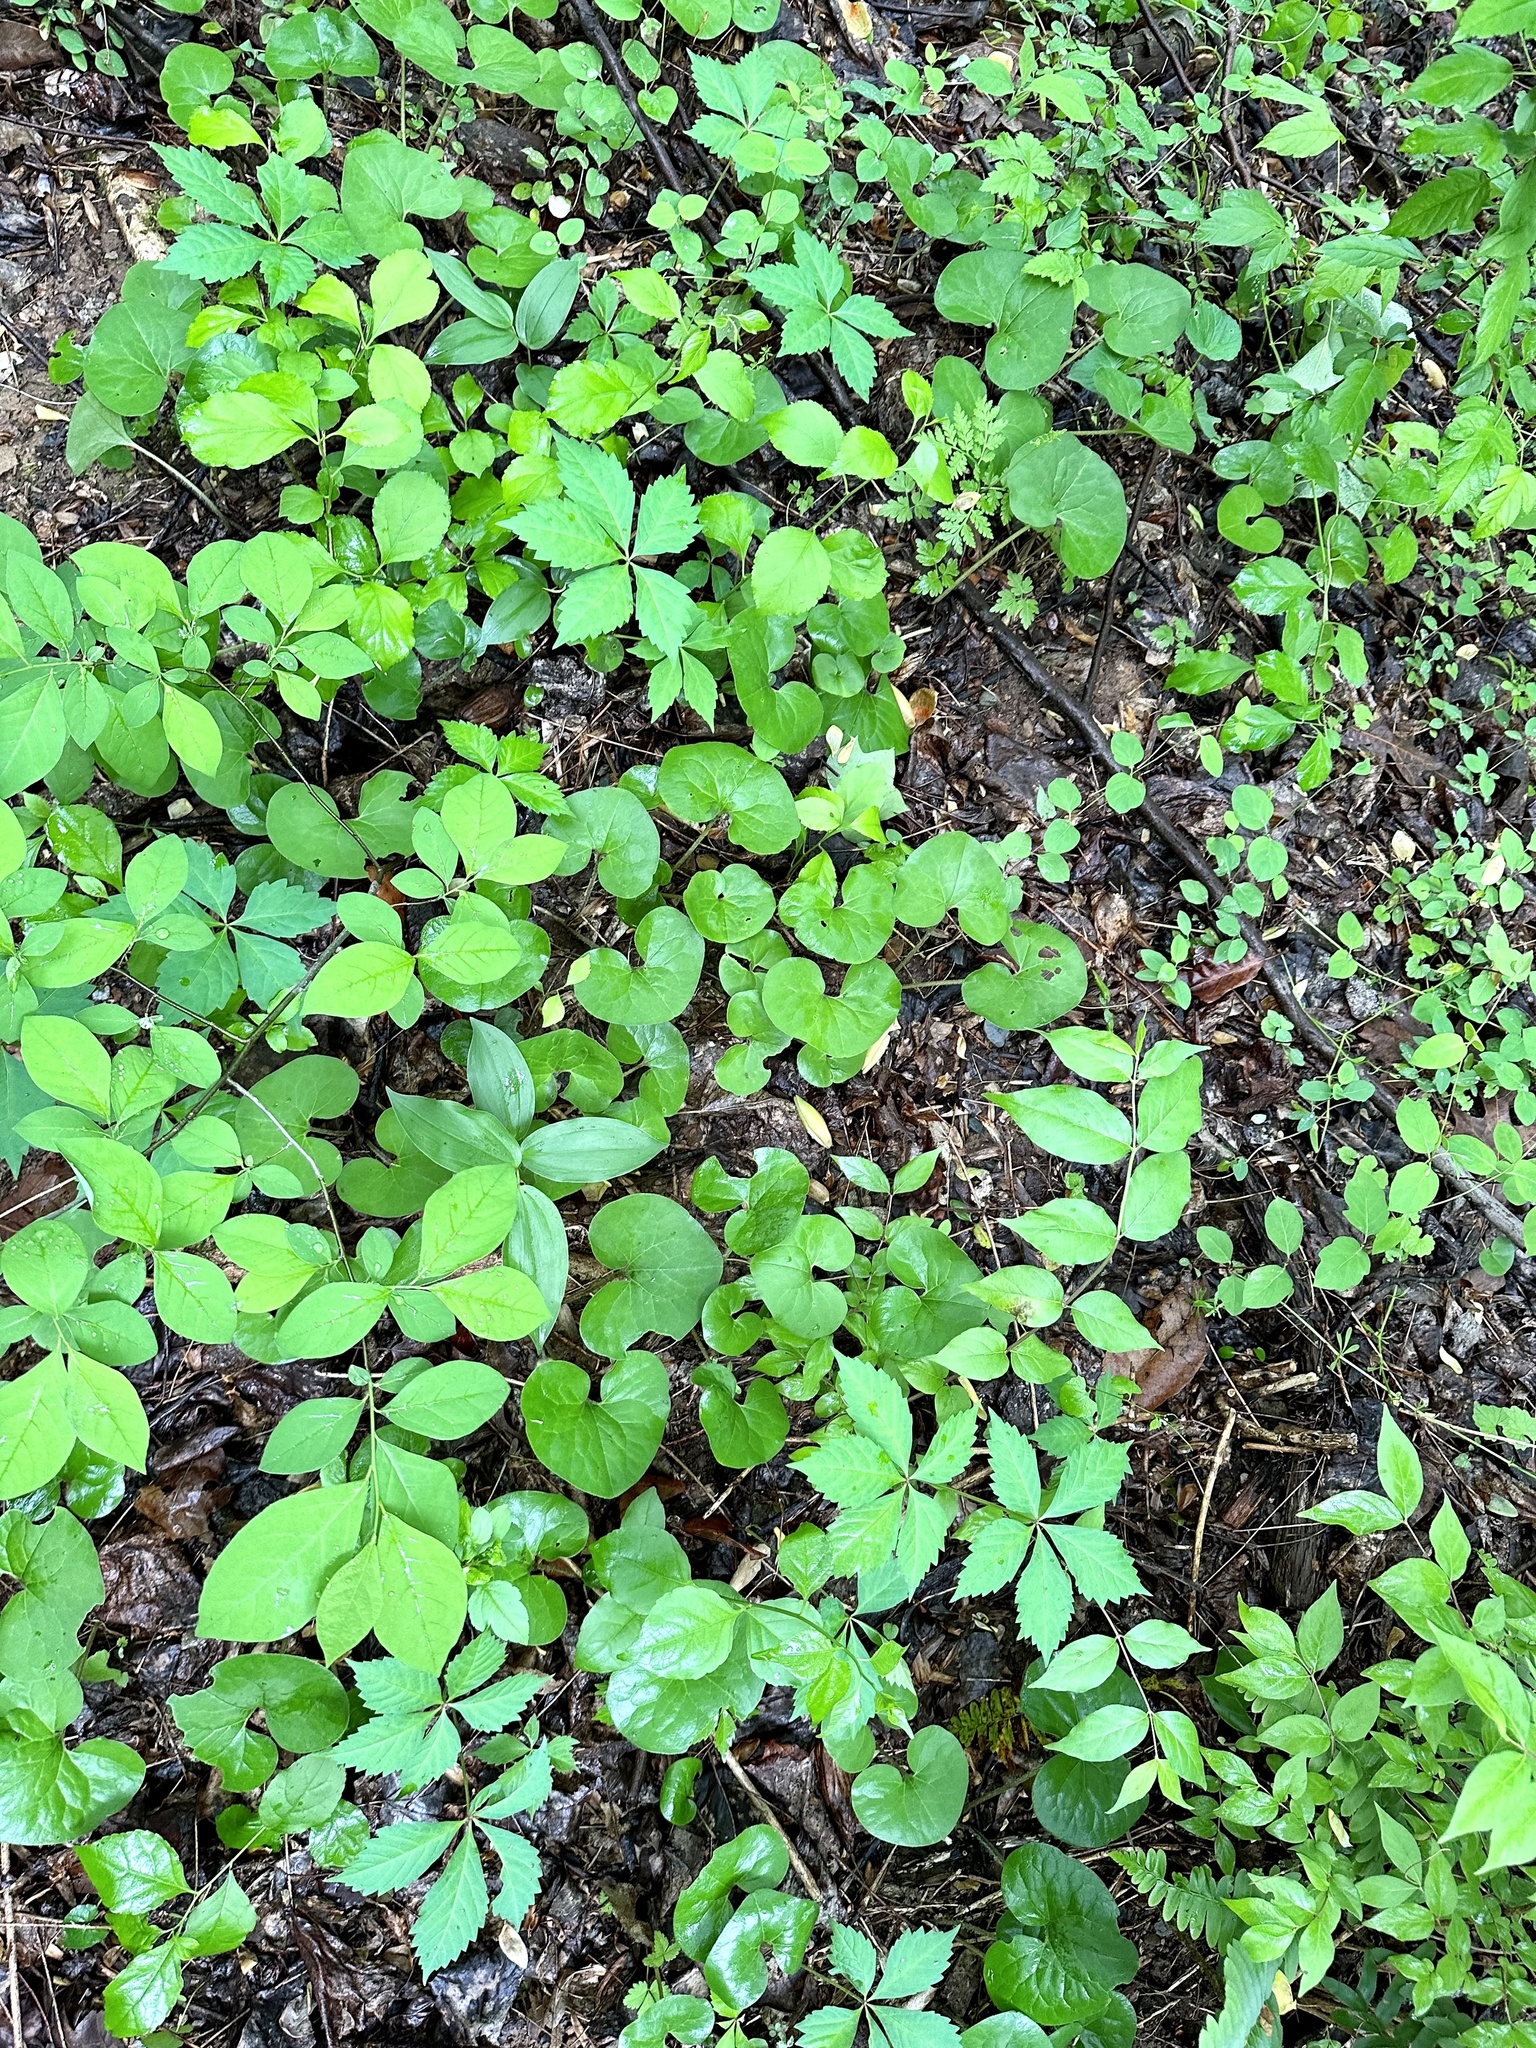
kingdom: Plantae
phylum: Tracheophyta
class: Magnoliopsida
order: Piperales
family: Aristolochiaceae
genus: Asarum
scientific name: Asarum canadense
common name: Wild ginger
